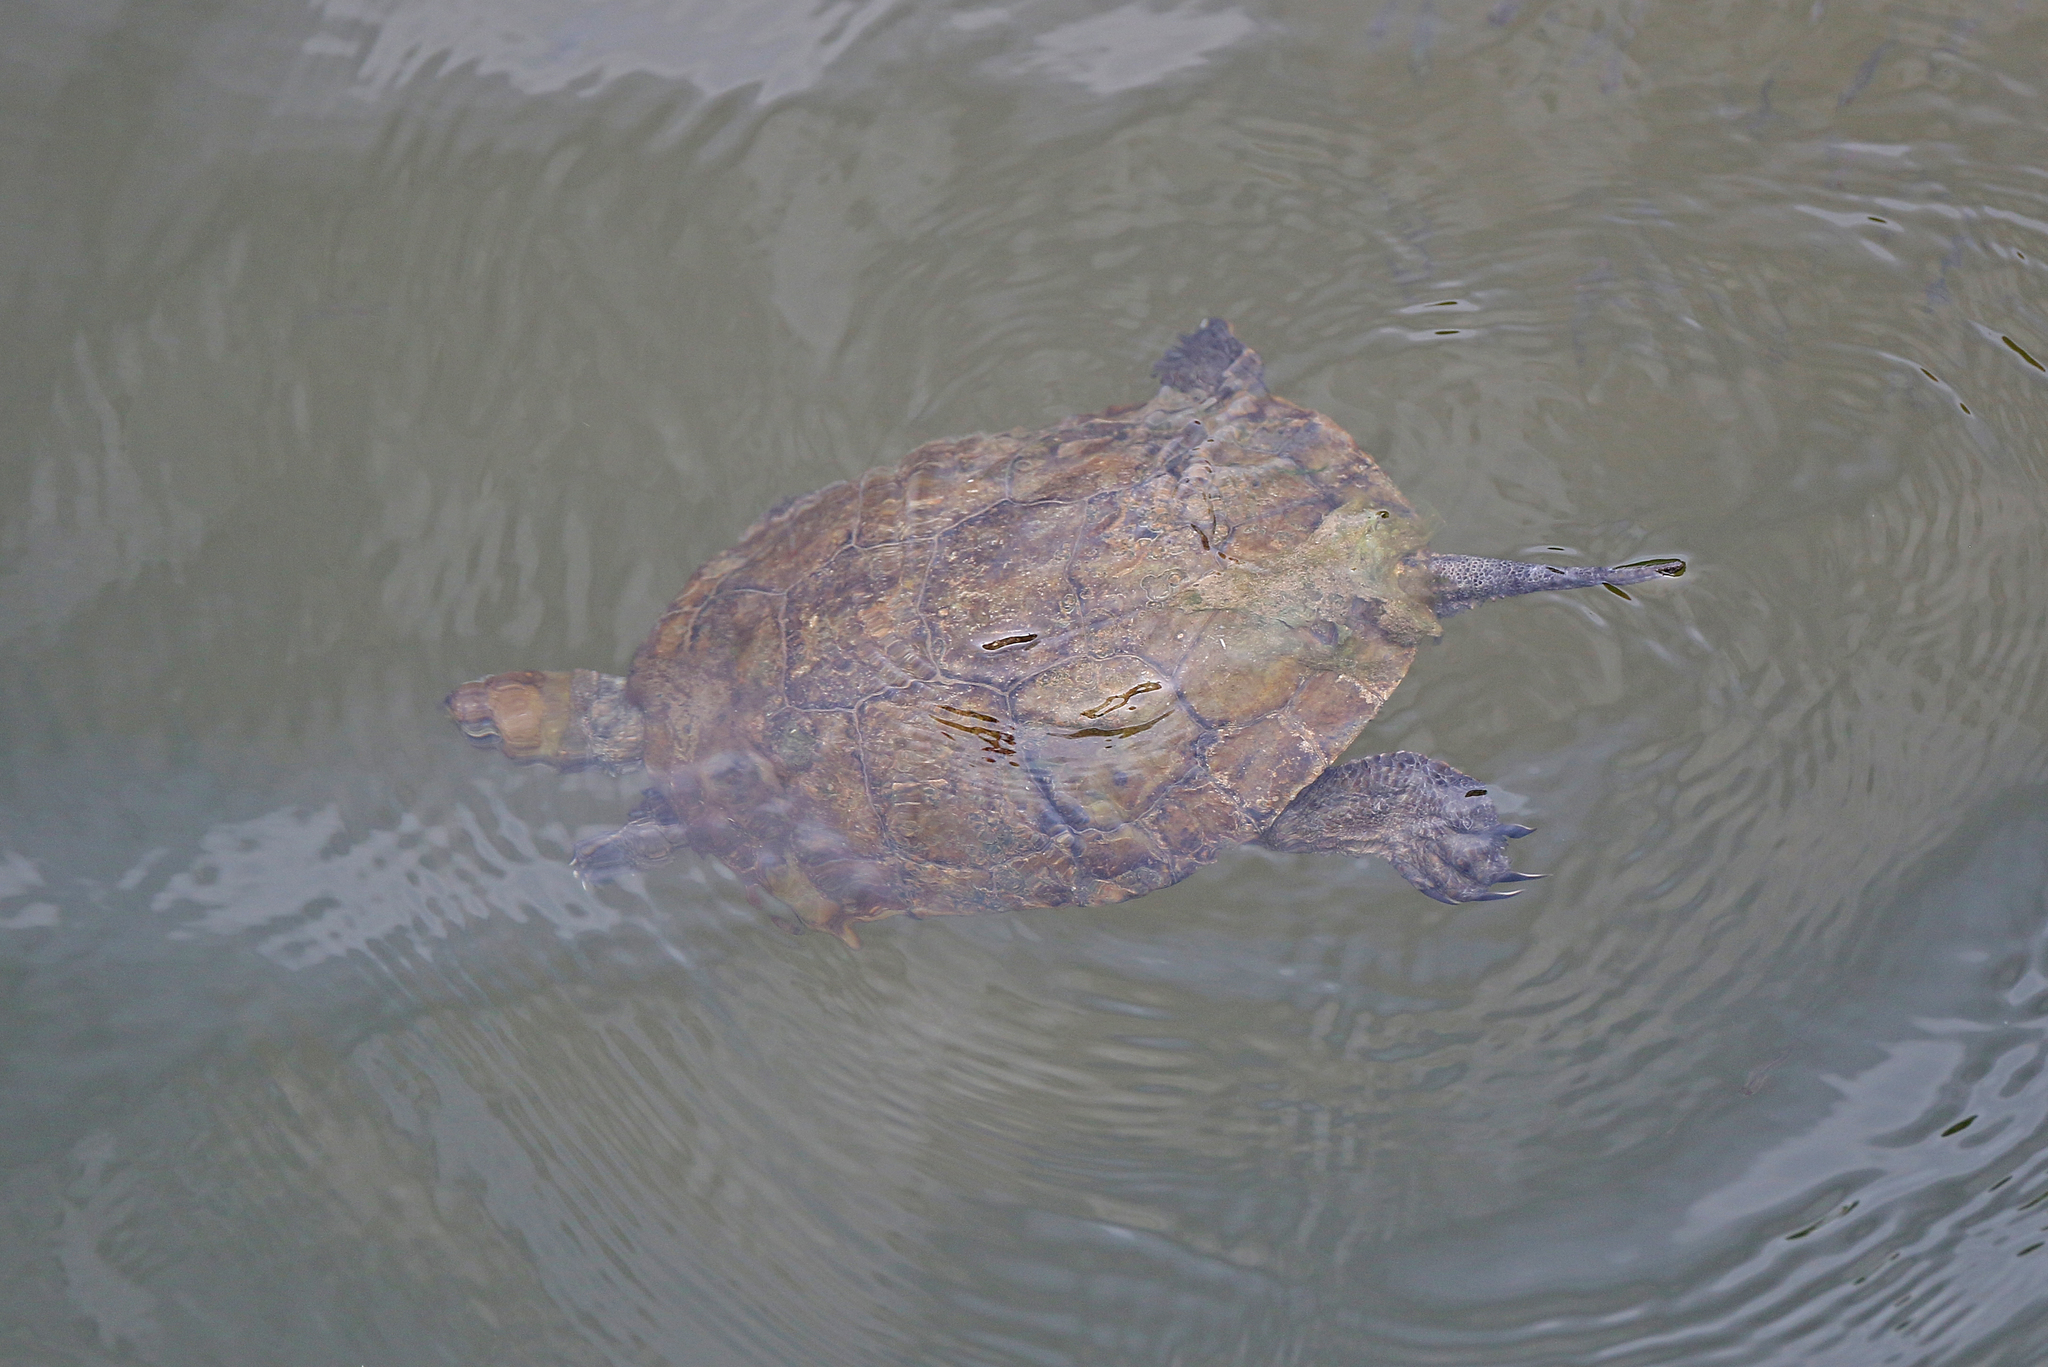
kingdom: Animalia
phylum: Chordata
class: Testudines
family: Geoemydidae
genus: Mauremys
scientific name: Mauremys leprosa
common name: Mediterranean pond turtle
